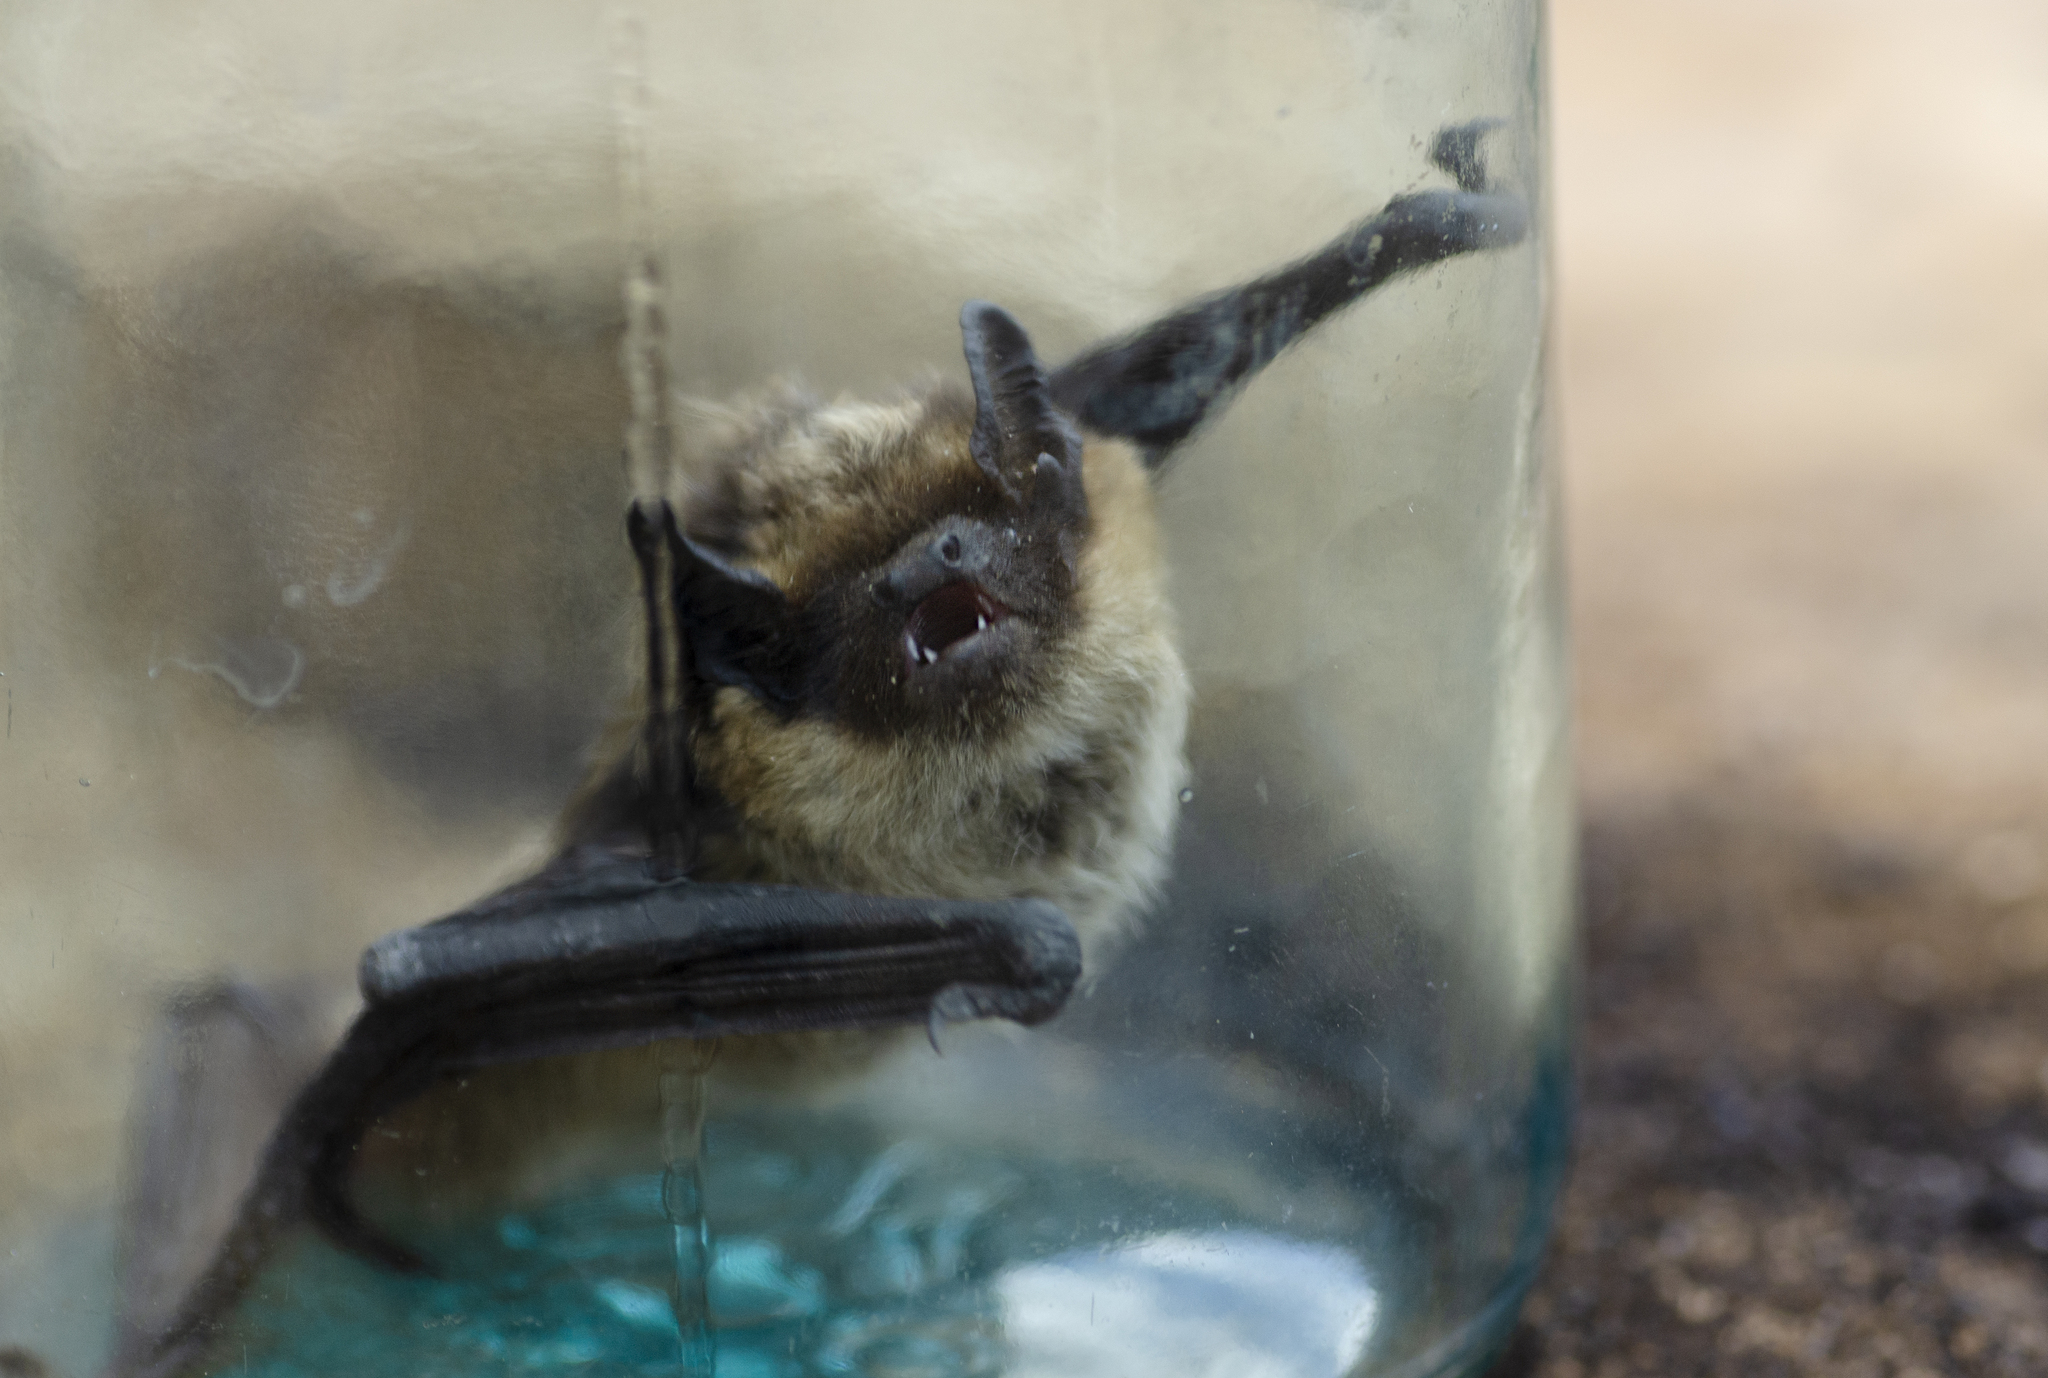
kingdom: Animalia
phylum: Chordata
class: Mammalia
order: Chiroptera
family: Vespertilionidae
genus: Eptesicus
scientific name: Eptesicus nilssonii
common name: Northern bat
